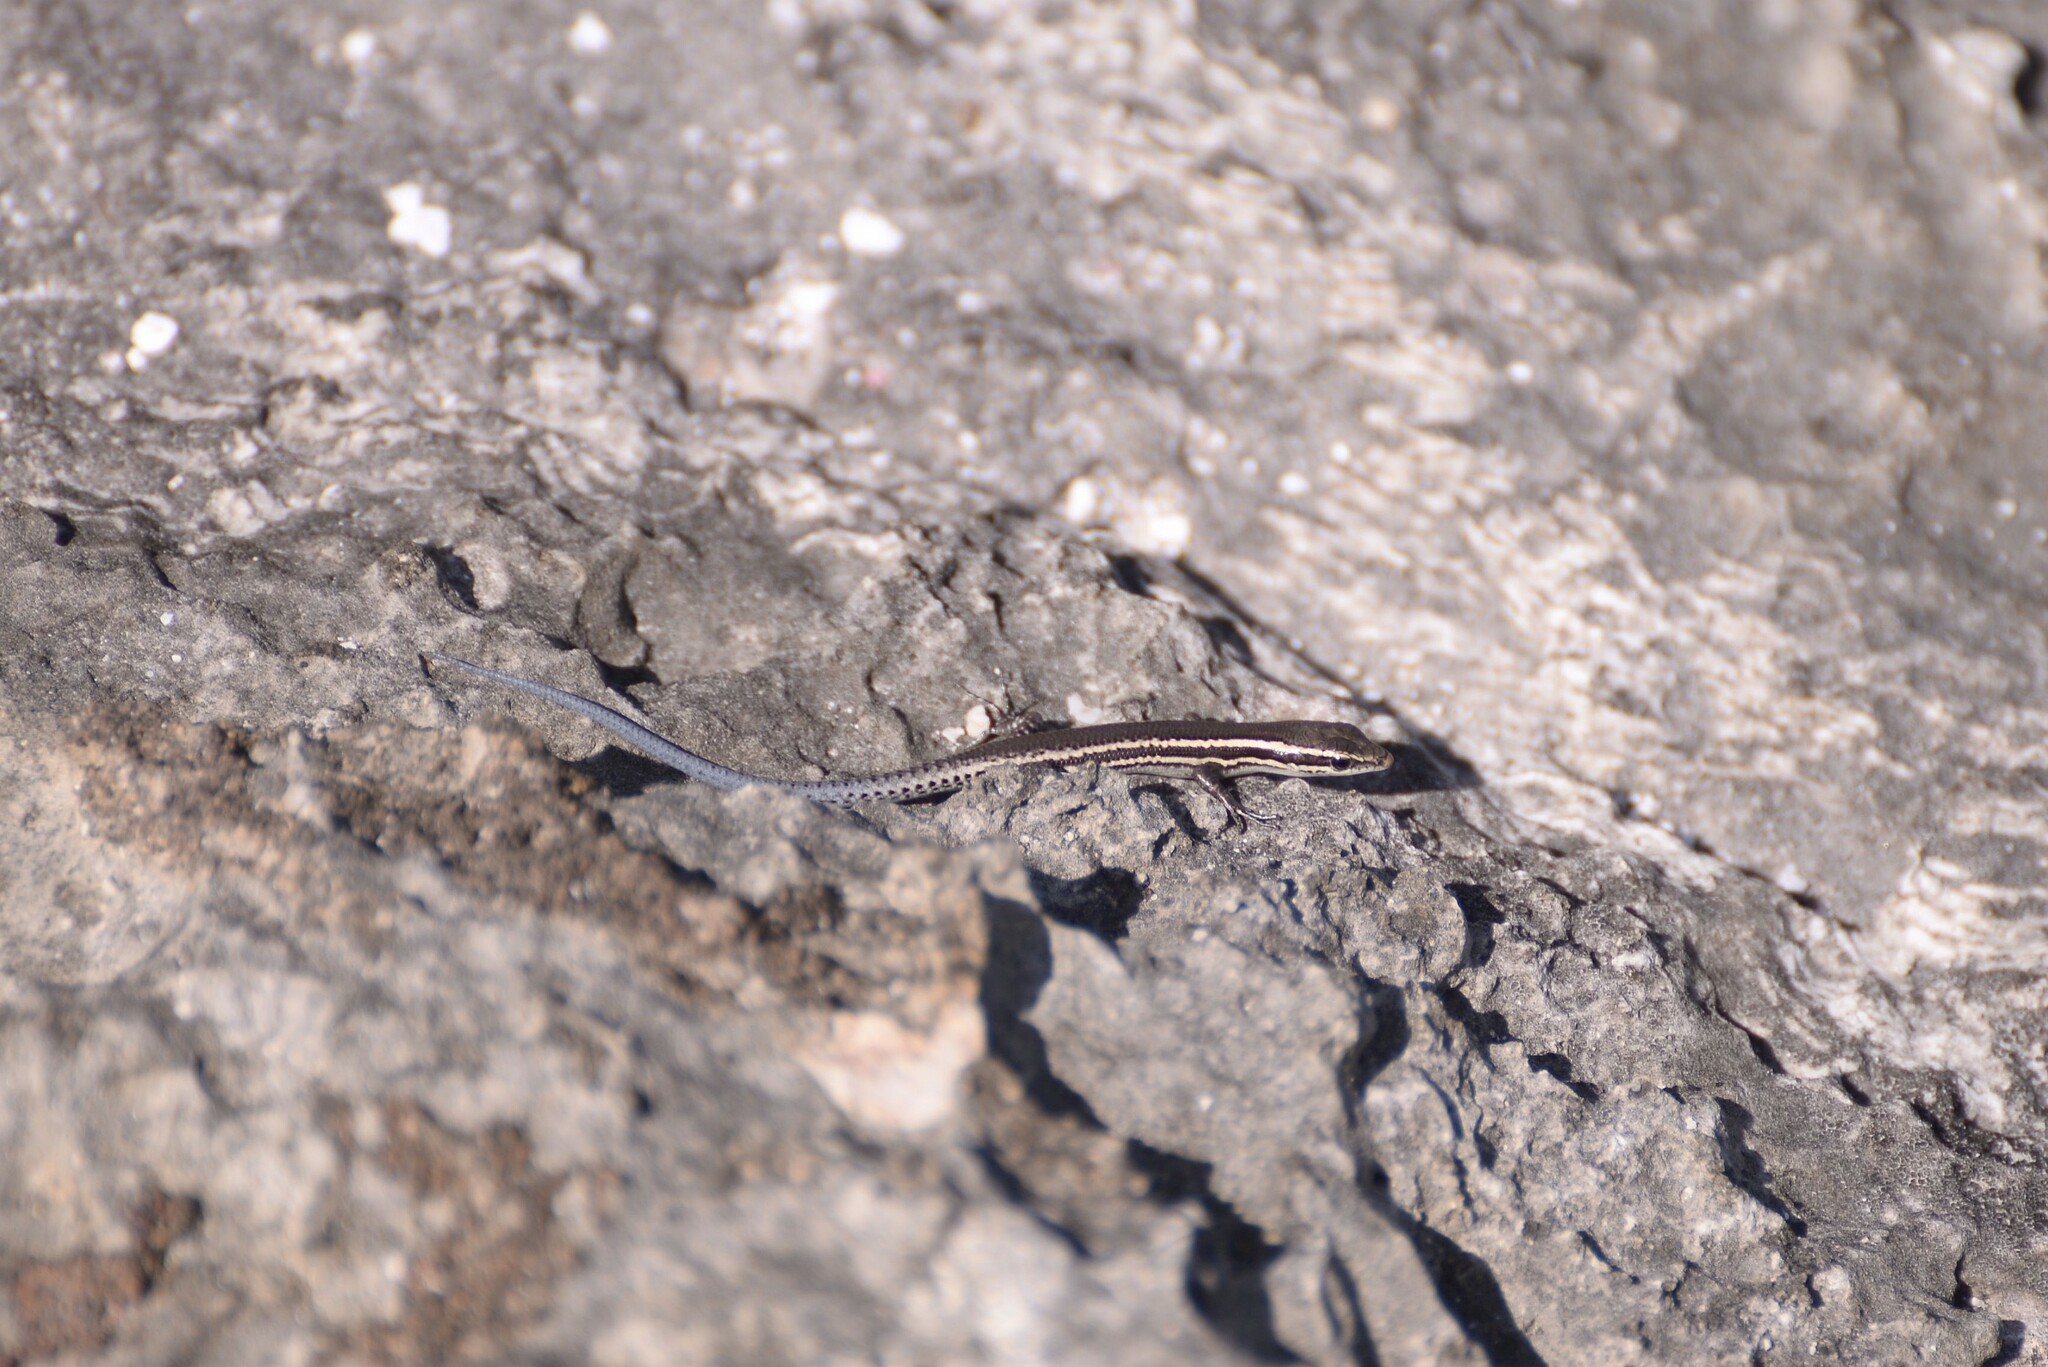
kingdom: Animalia
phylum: Chordata
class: Squamata
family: Scincidae
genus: Cryptoblepharus
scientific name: Cryptoblepharus novohebridicus
